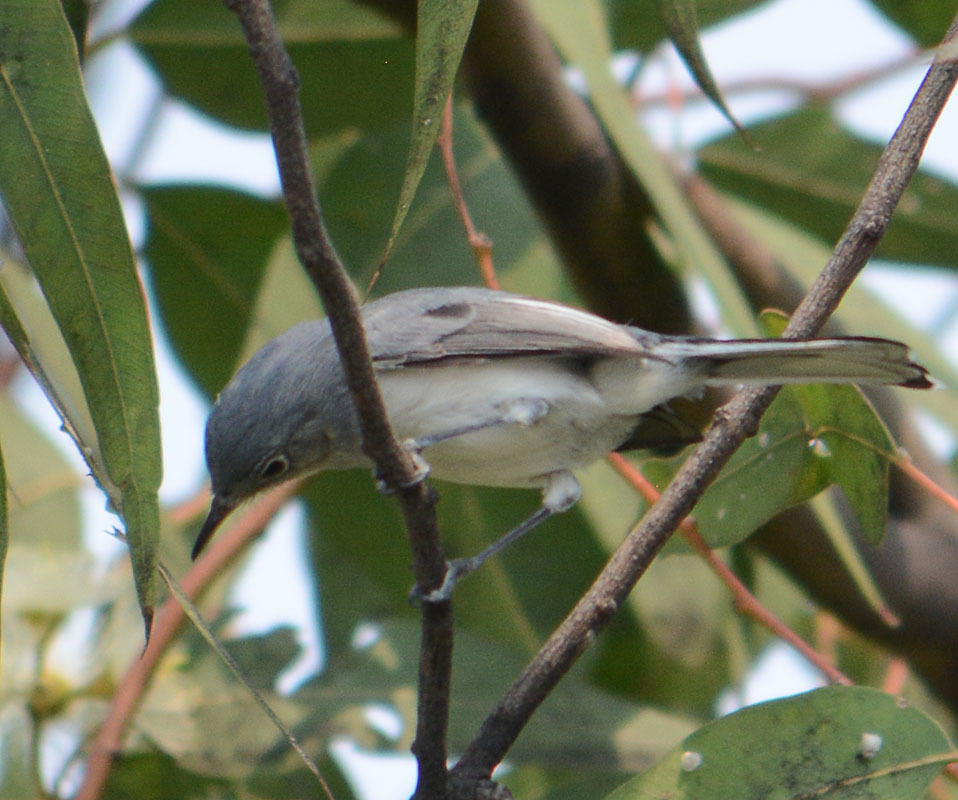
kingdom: Animalia
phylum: Chordata
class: Aves
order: Passeriformes
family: Polioptilidae
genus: Polioptila
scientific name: Polioptila caerulea
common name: Blue-gray gnatcatcher
